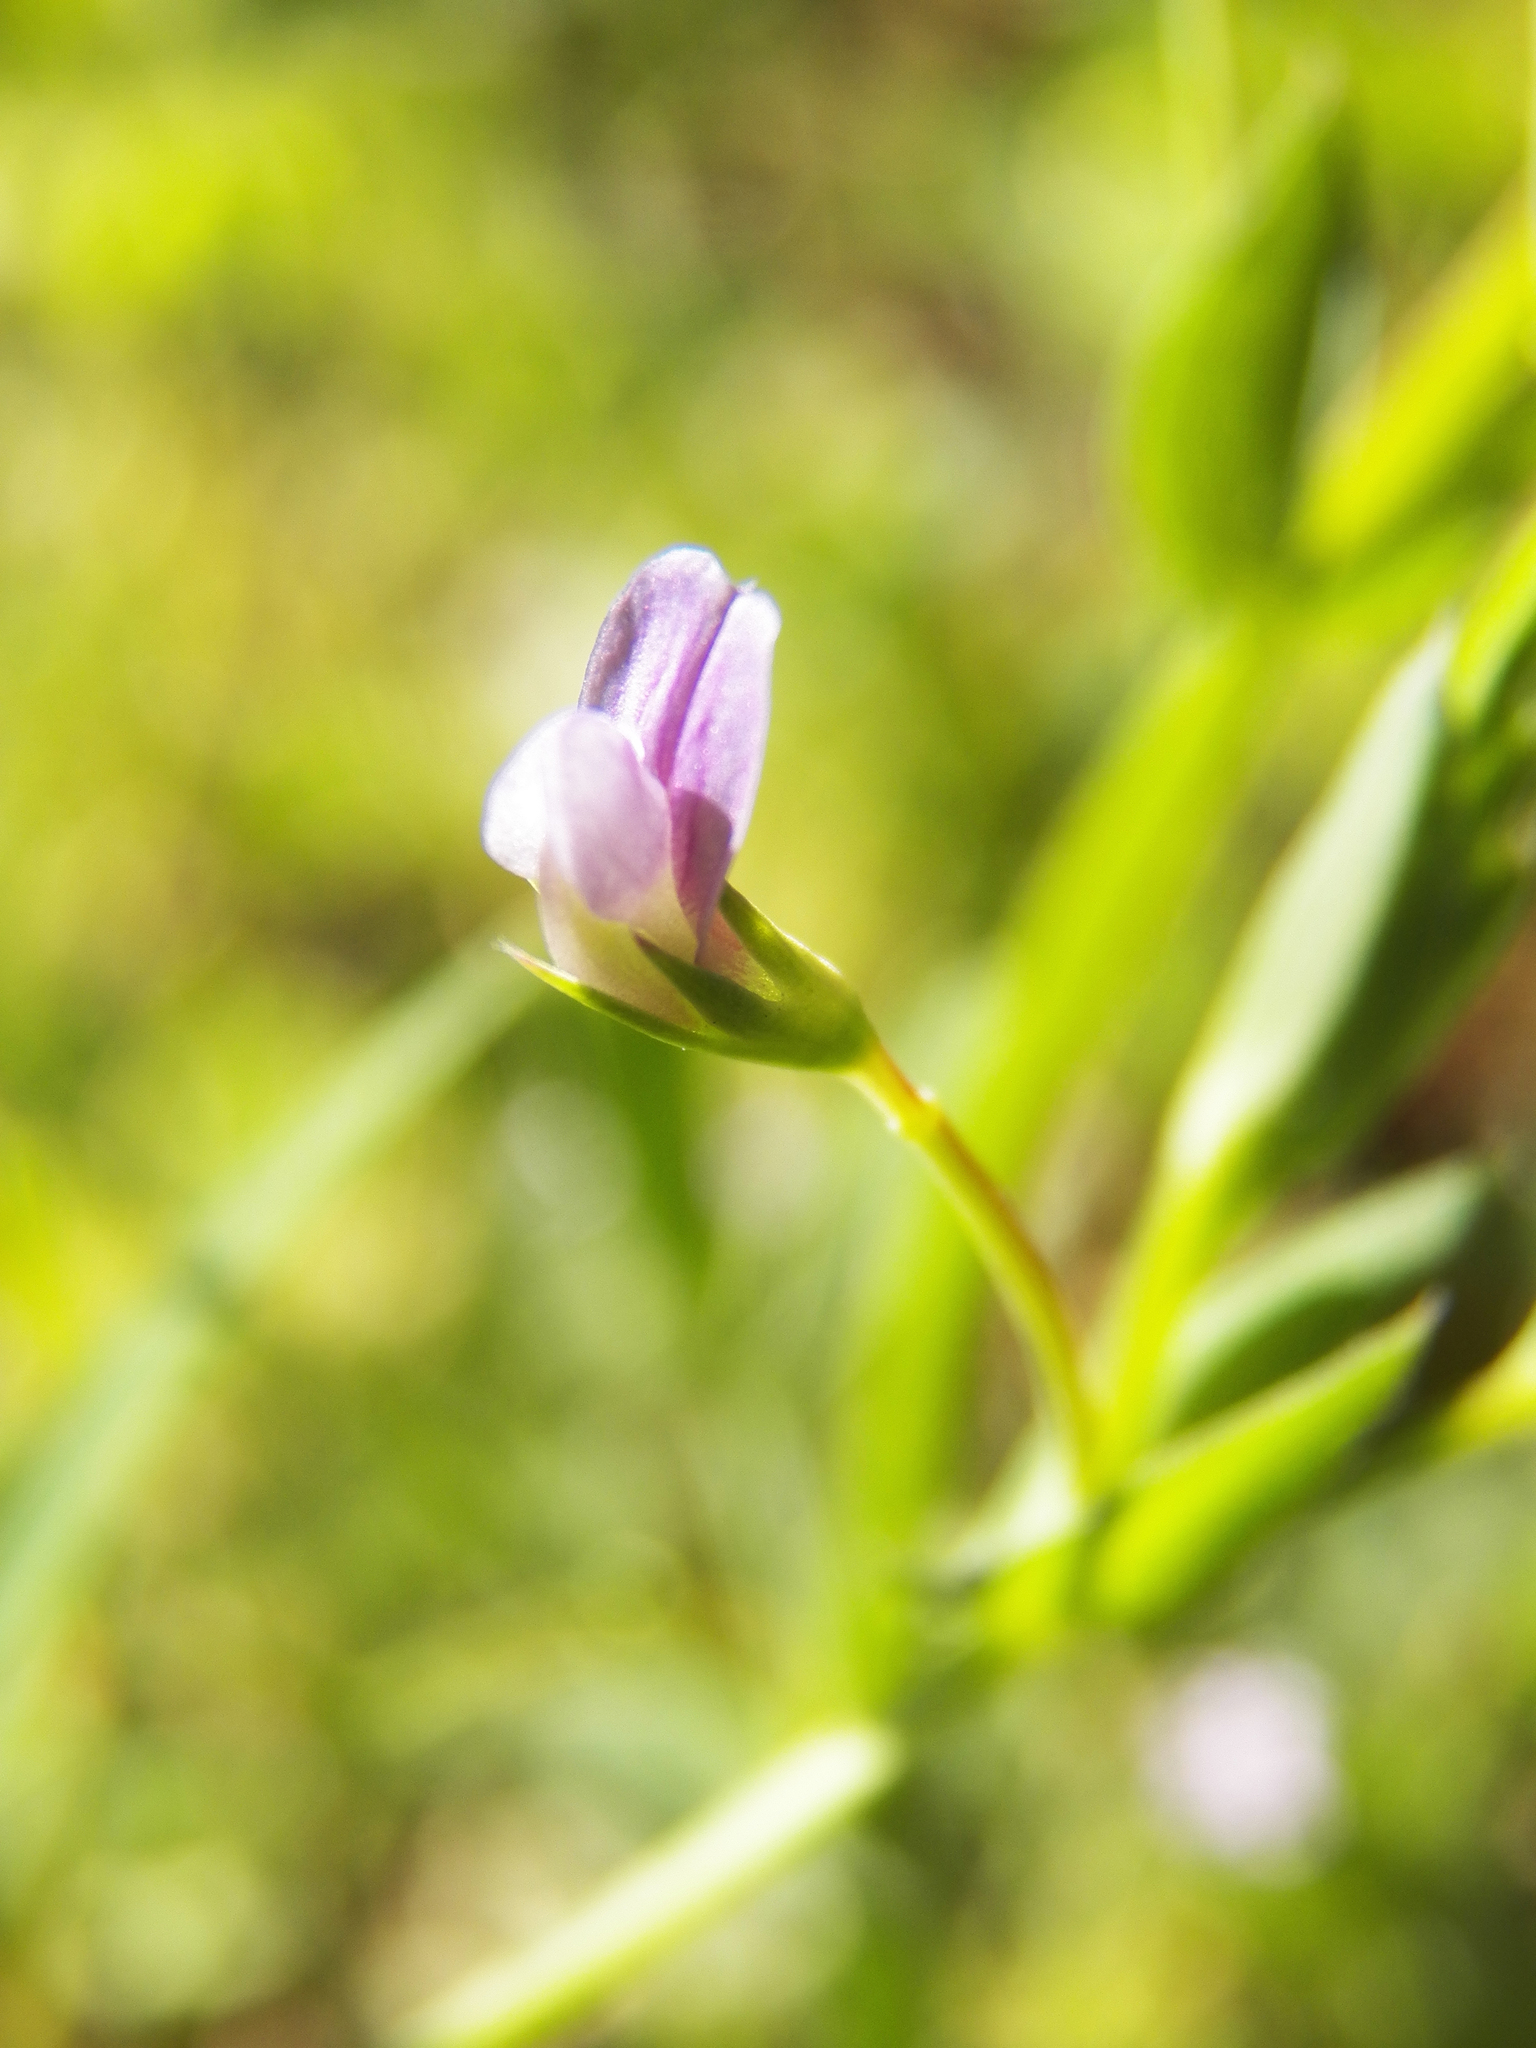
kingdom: Plantae
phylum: Tracheophyta
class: Magnoliopsida
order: Fabales
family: Fabaceae
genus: Lathyrus
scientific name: Lathyrus pusillus
